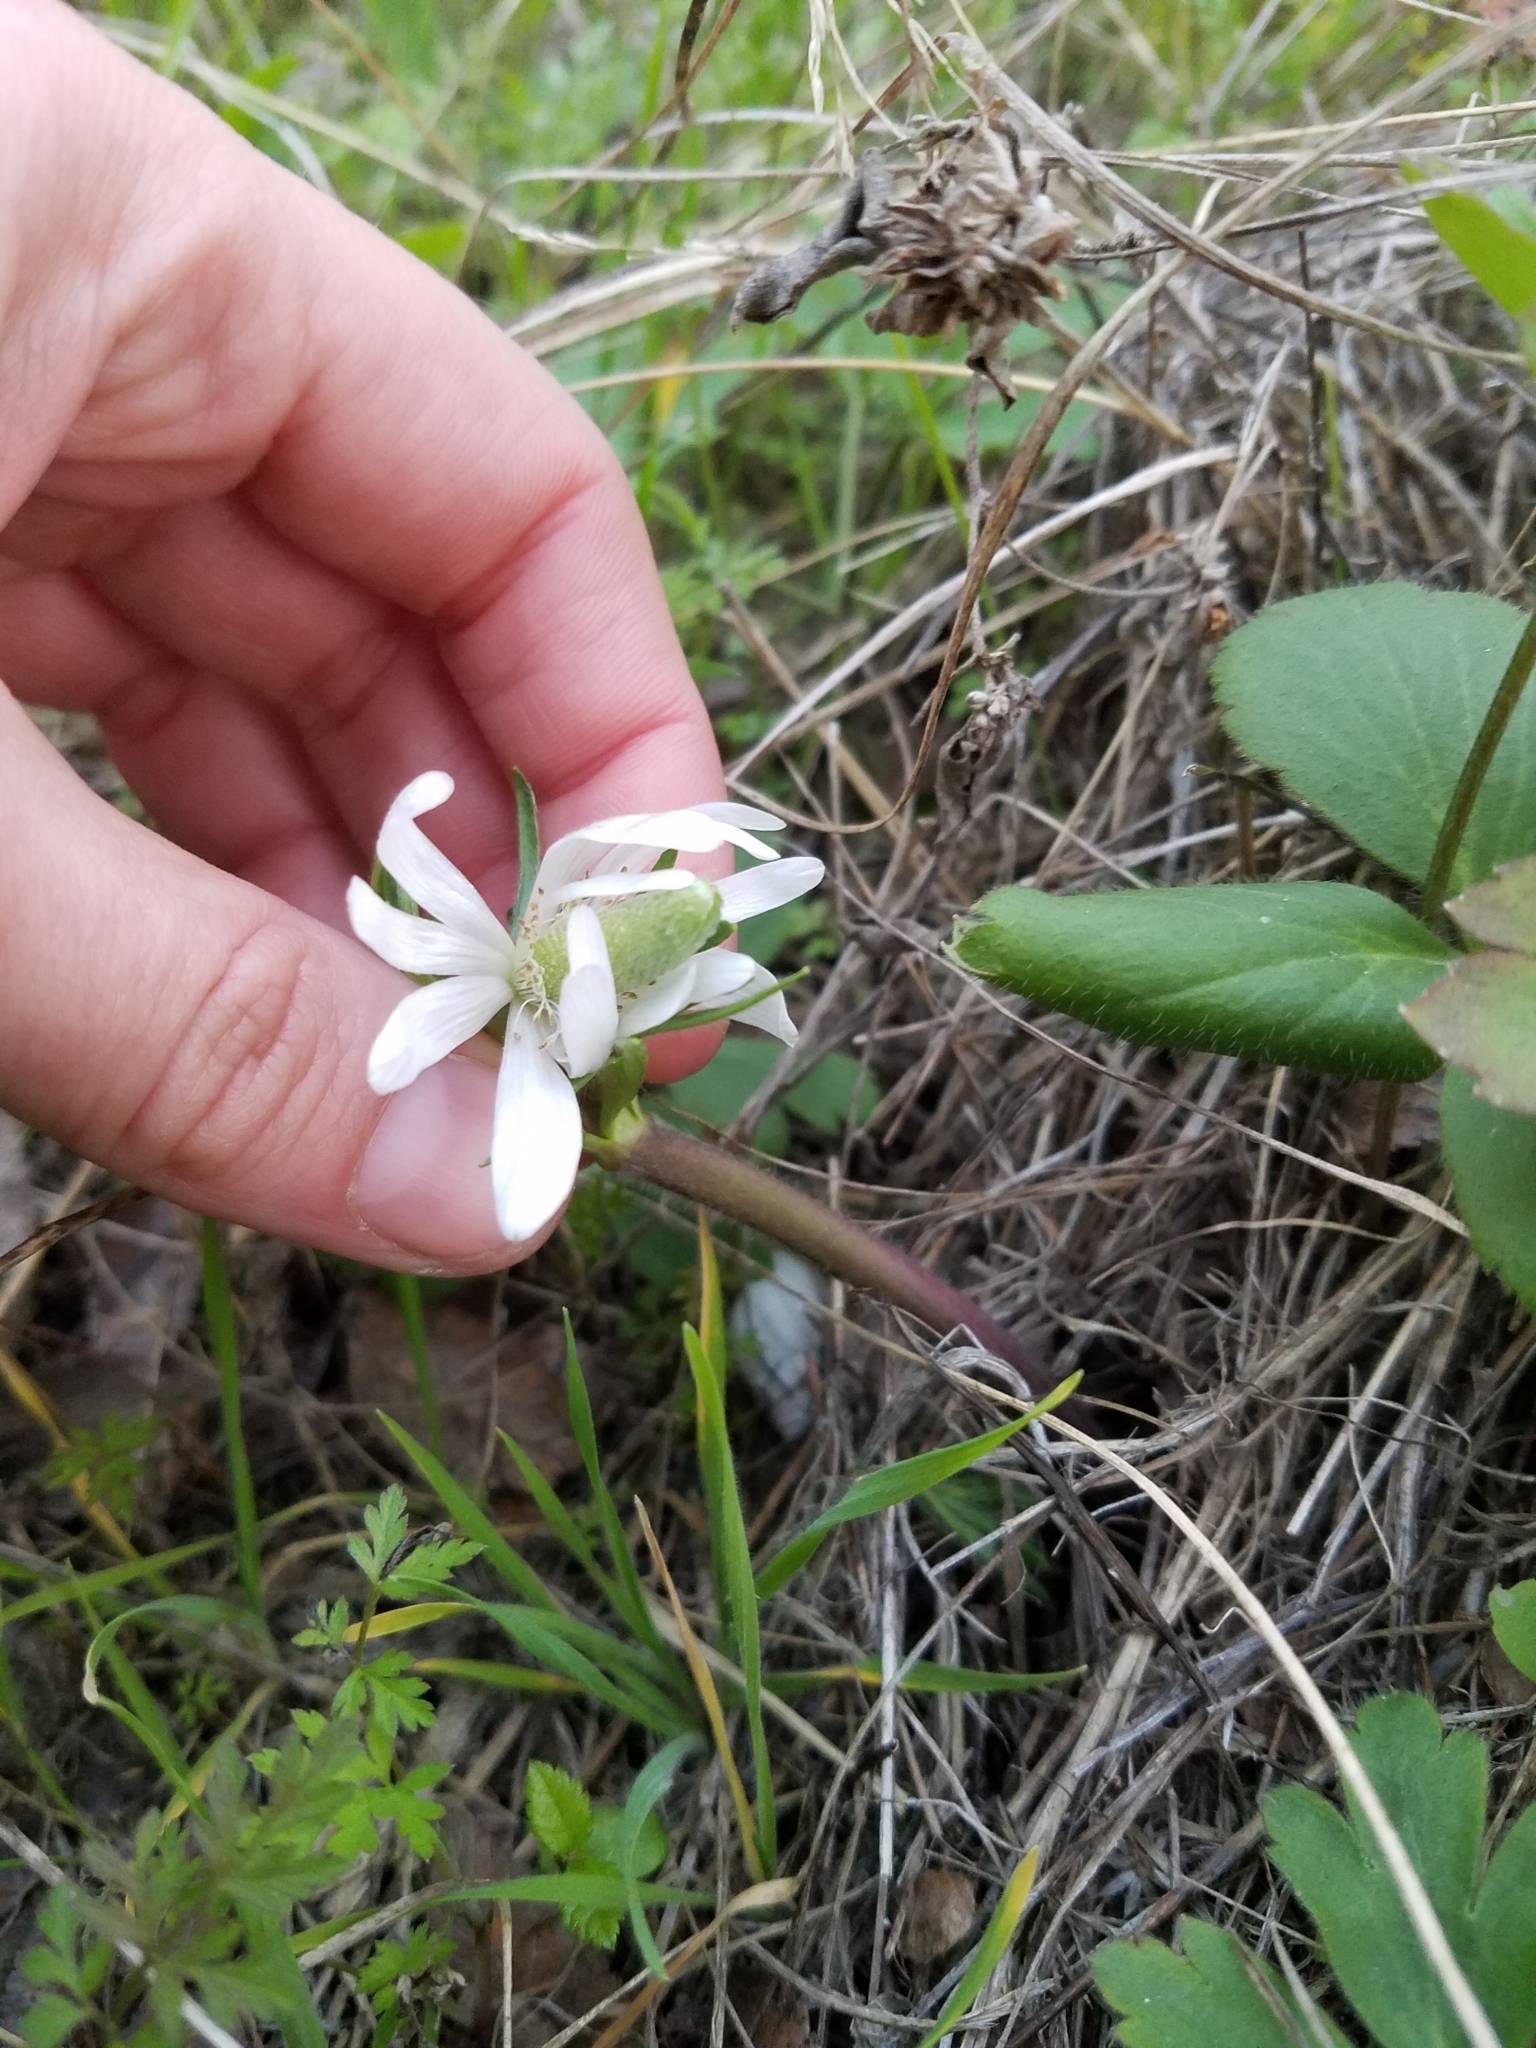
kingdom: Plantae
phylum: Tracheophyta
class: Magnoliopsida
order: Ranunculales
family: Ranunculaceae
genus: Anemone
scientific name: Anemone berlandieri
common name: Ten-petal anemone
